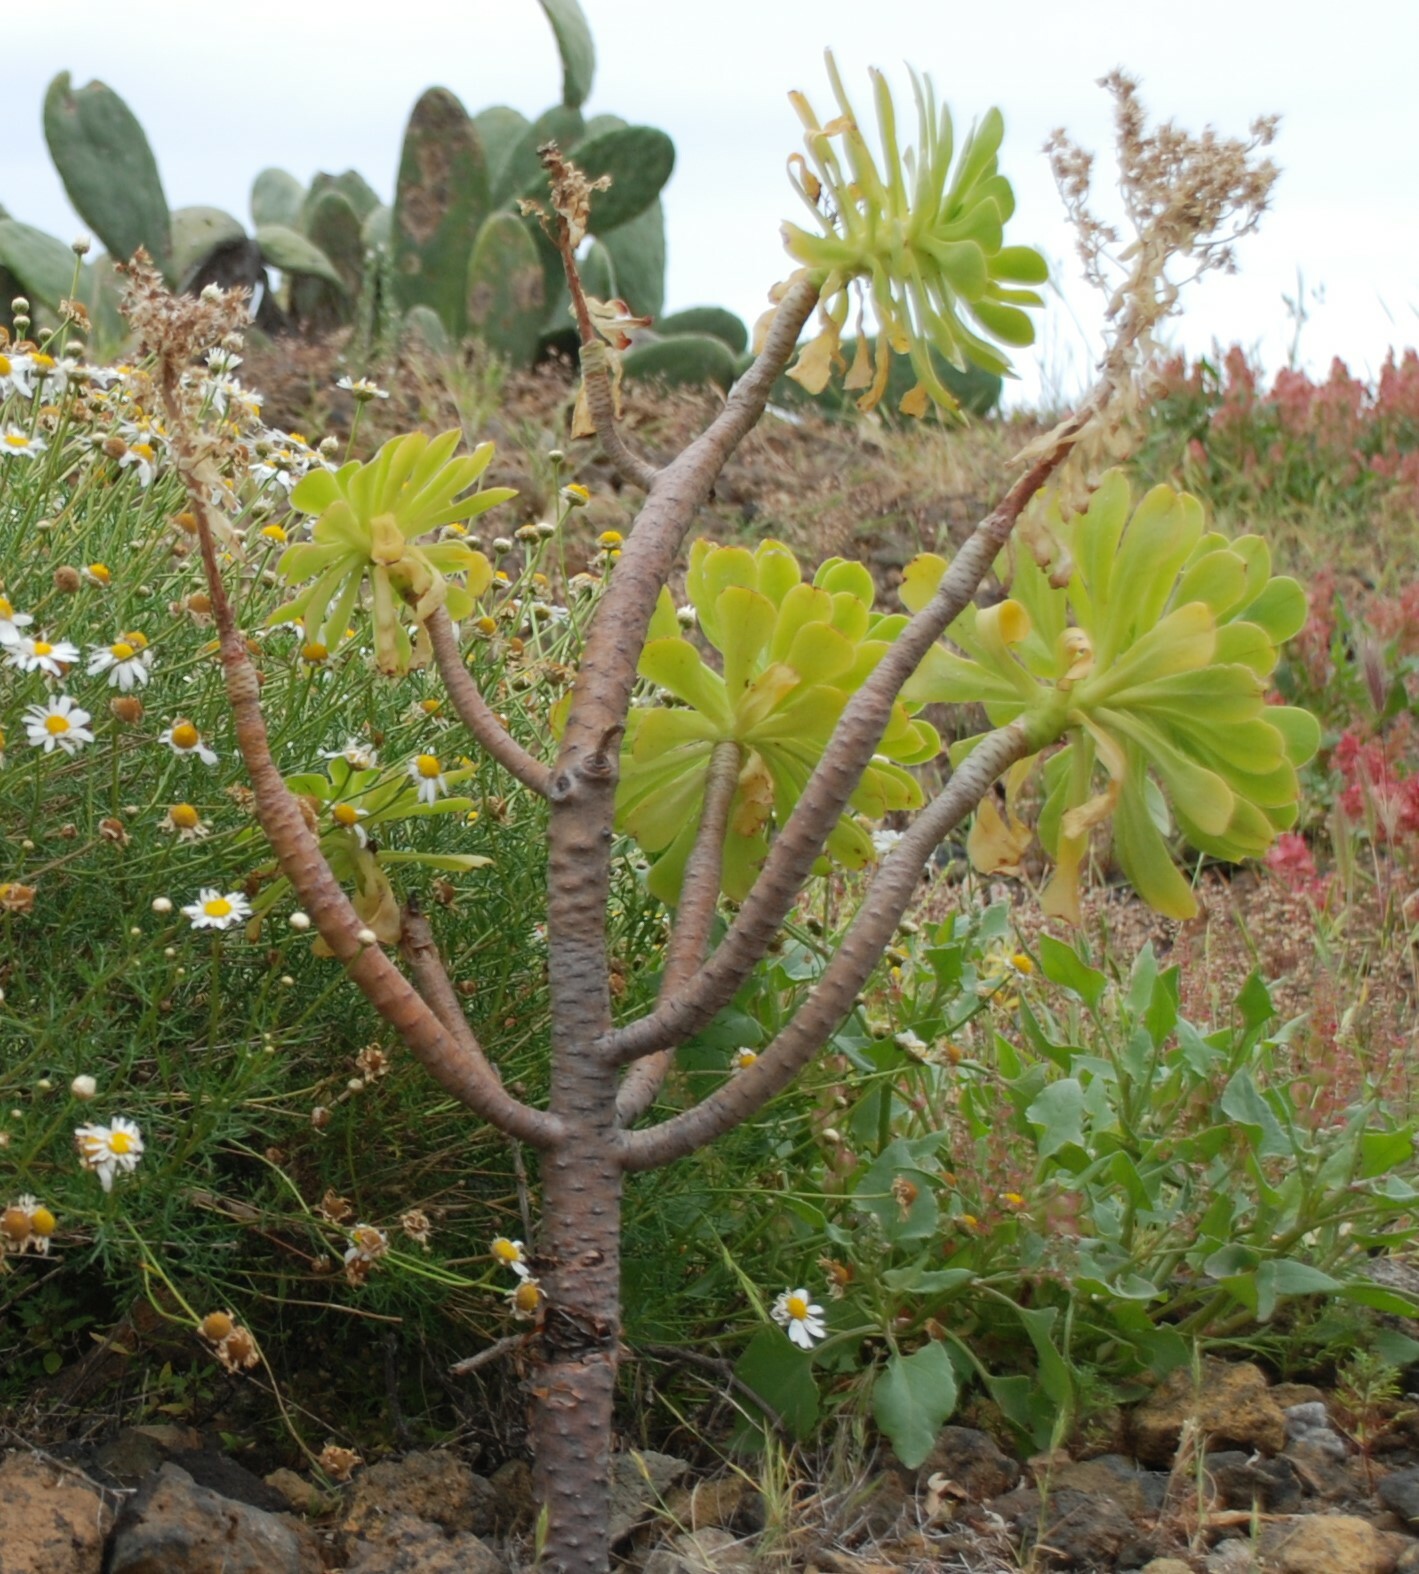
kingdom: Plantae
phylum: Tracheophyta
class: Magnoliopsida
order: Saxifragales
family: Crassulaceae
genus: Aeonium
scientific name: Aeonium arboreum
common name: Tree aeonium
